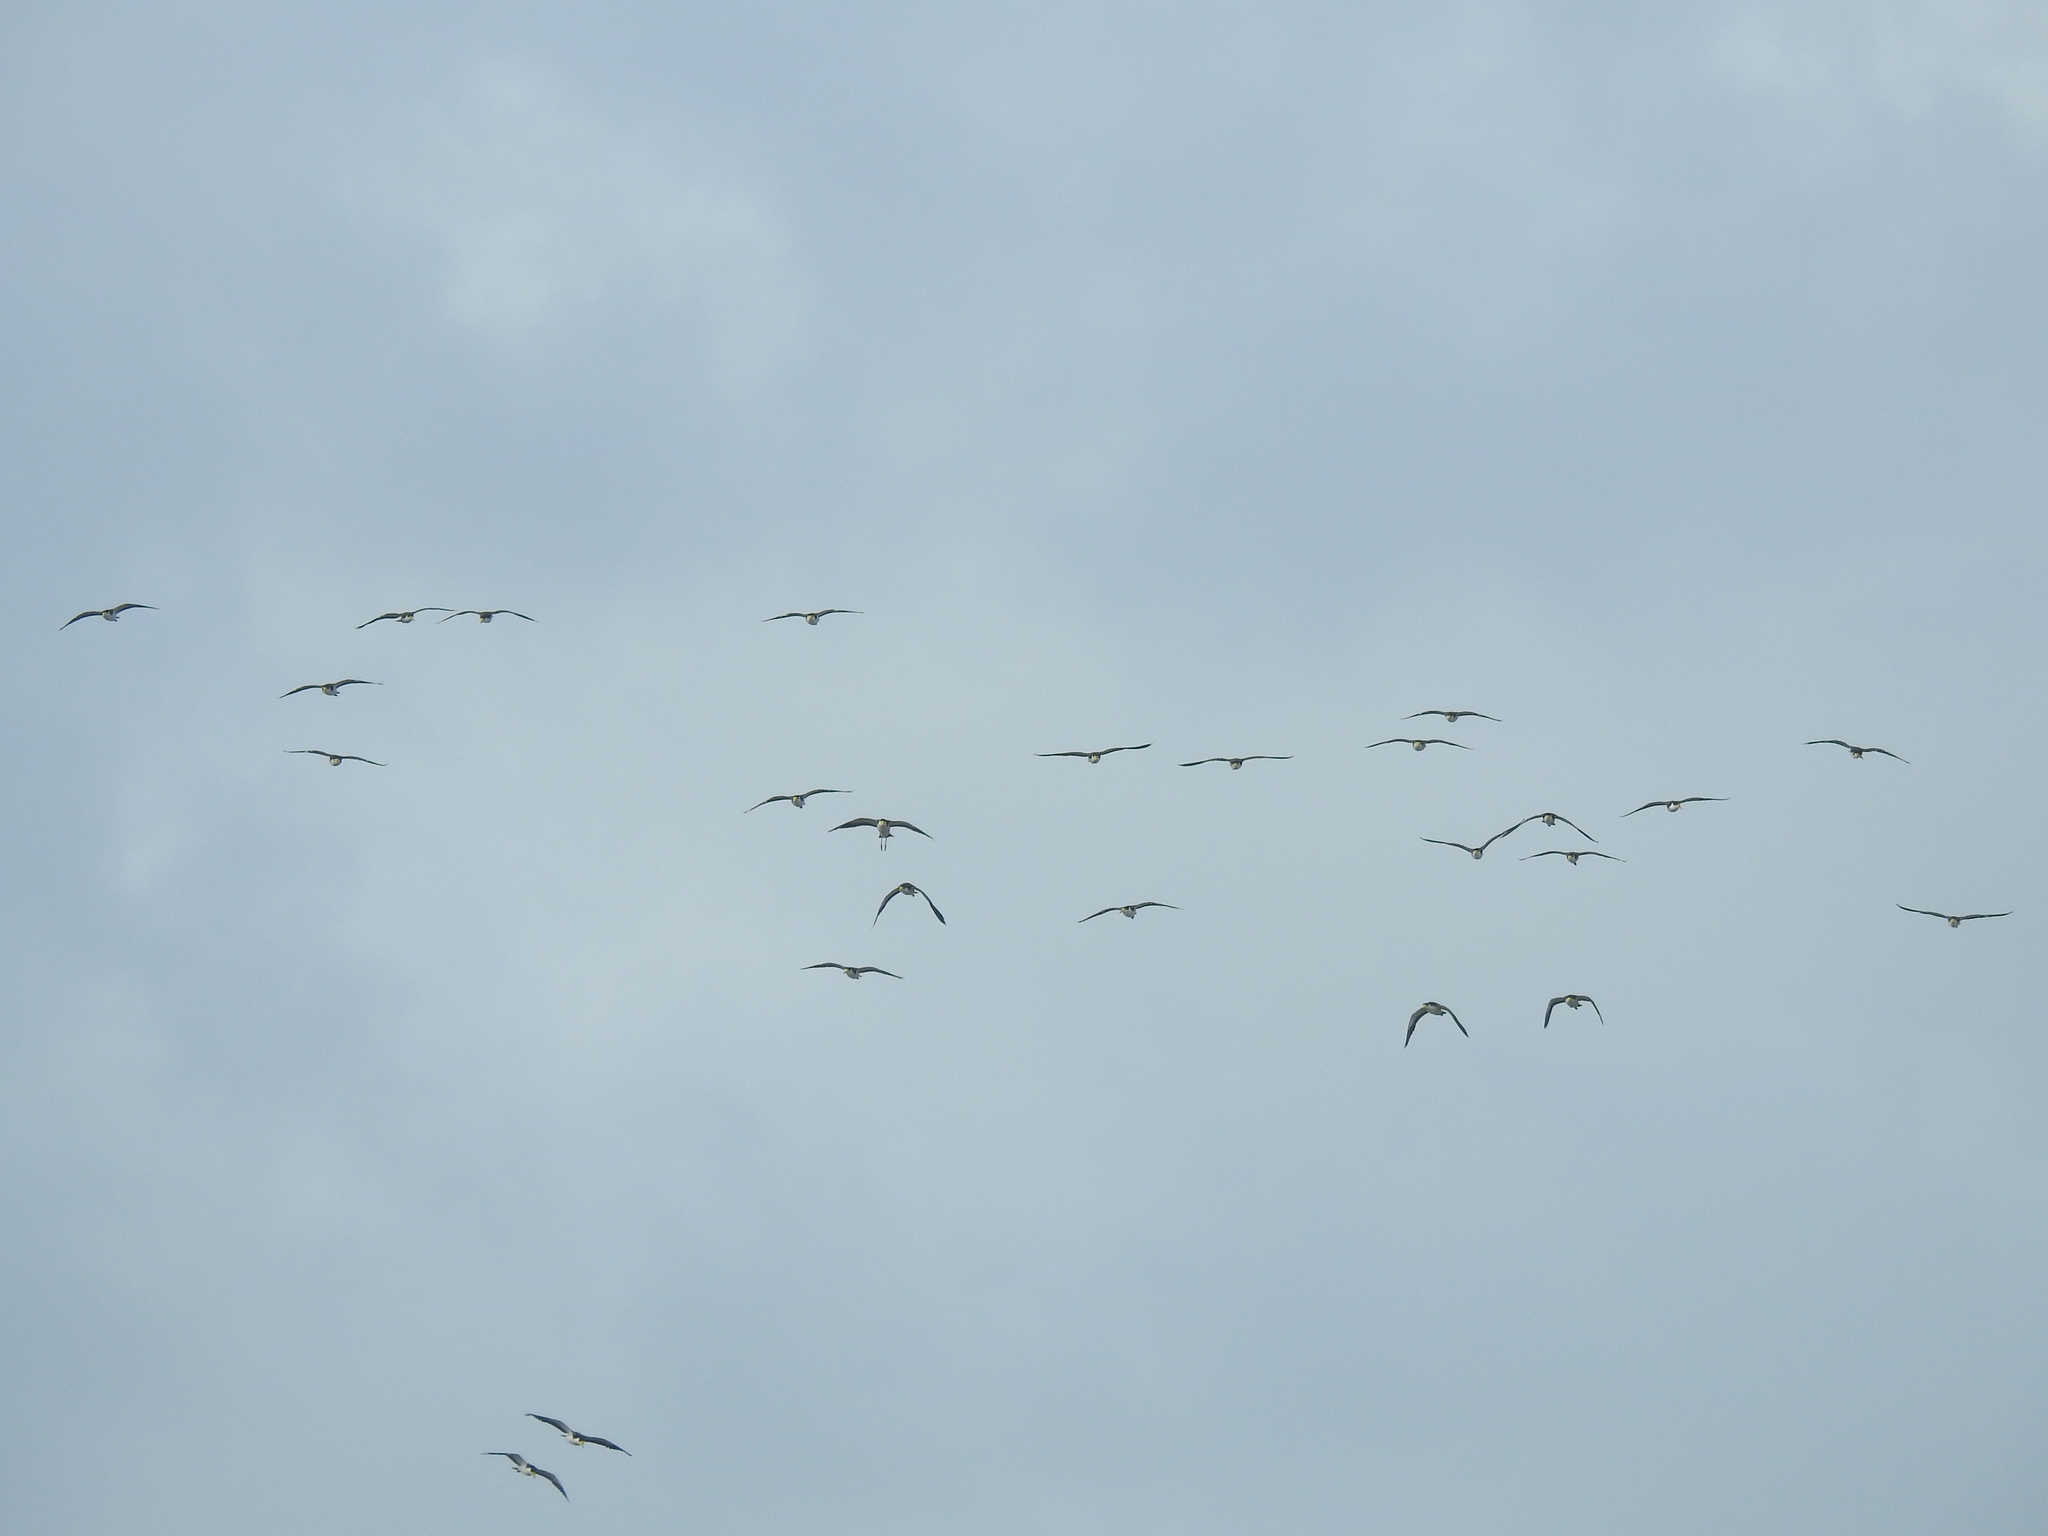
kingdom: Animalia
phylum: Chordata
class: Aves
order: Charadriiformes
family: Charadriidae
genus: Vanellus
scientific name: Vanellus miles
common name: Masked lapwing
